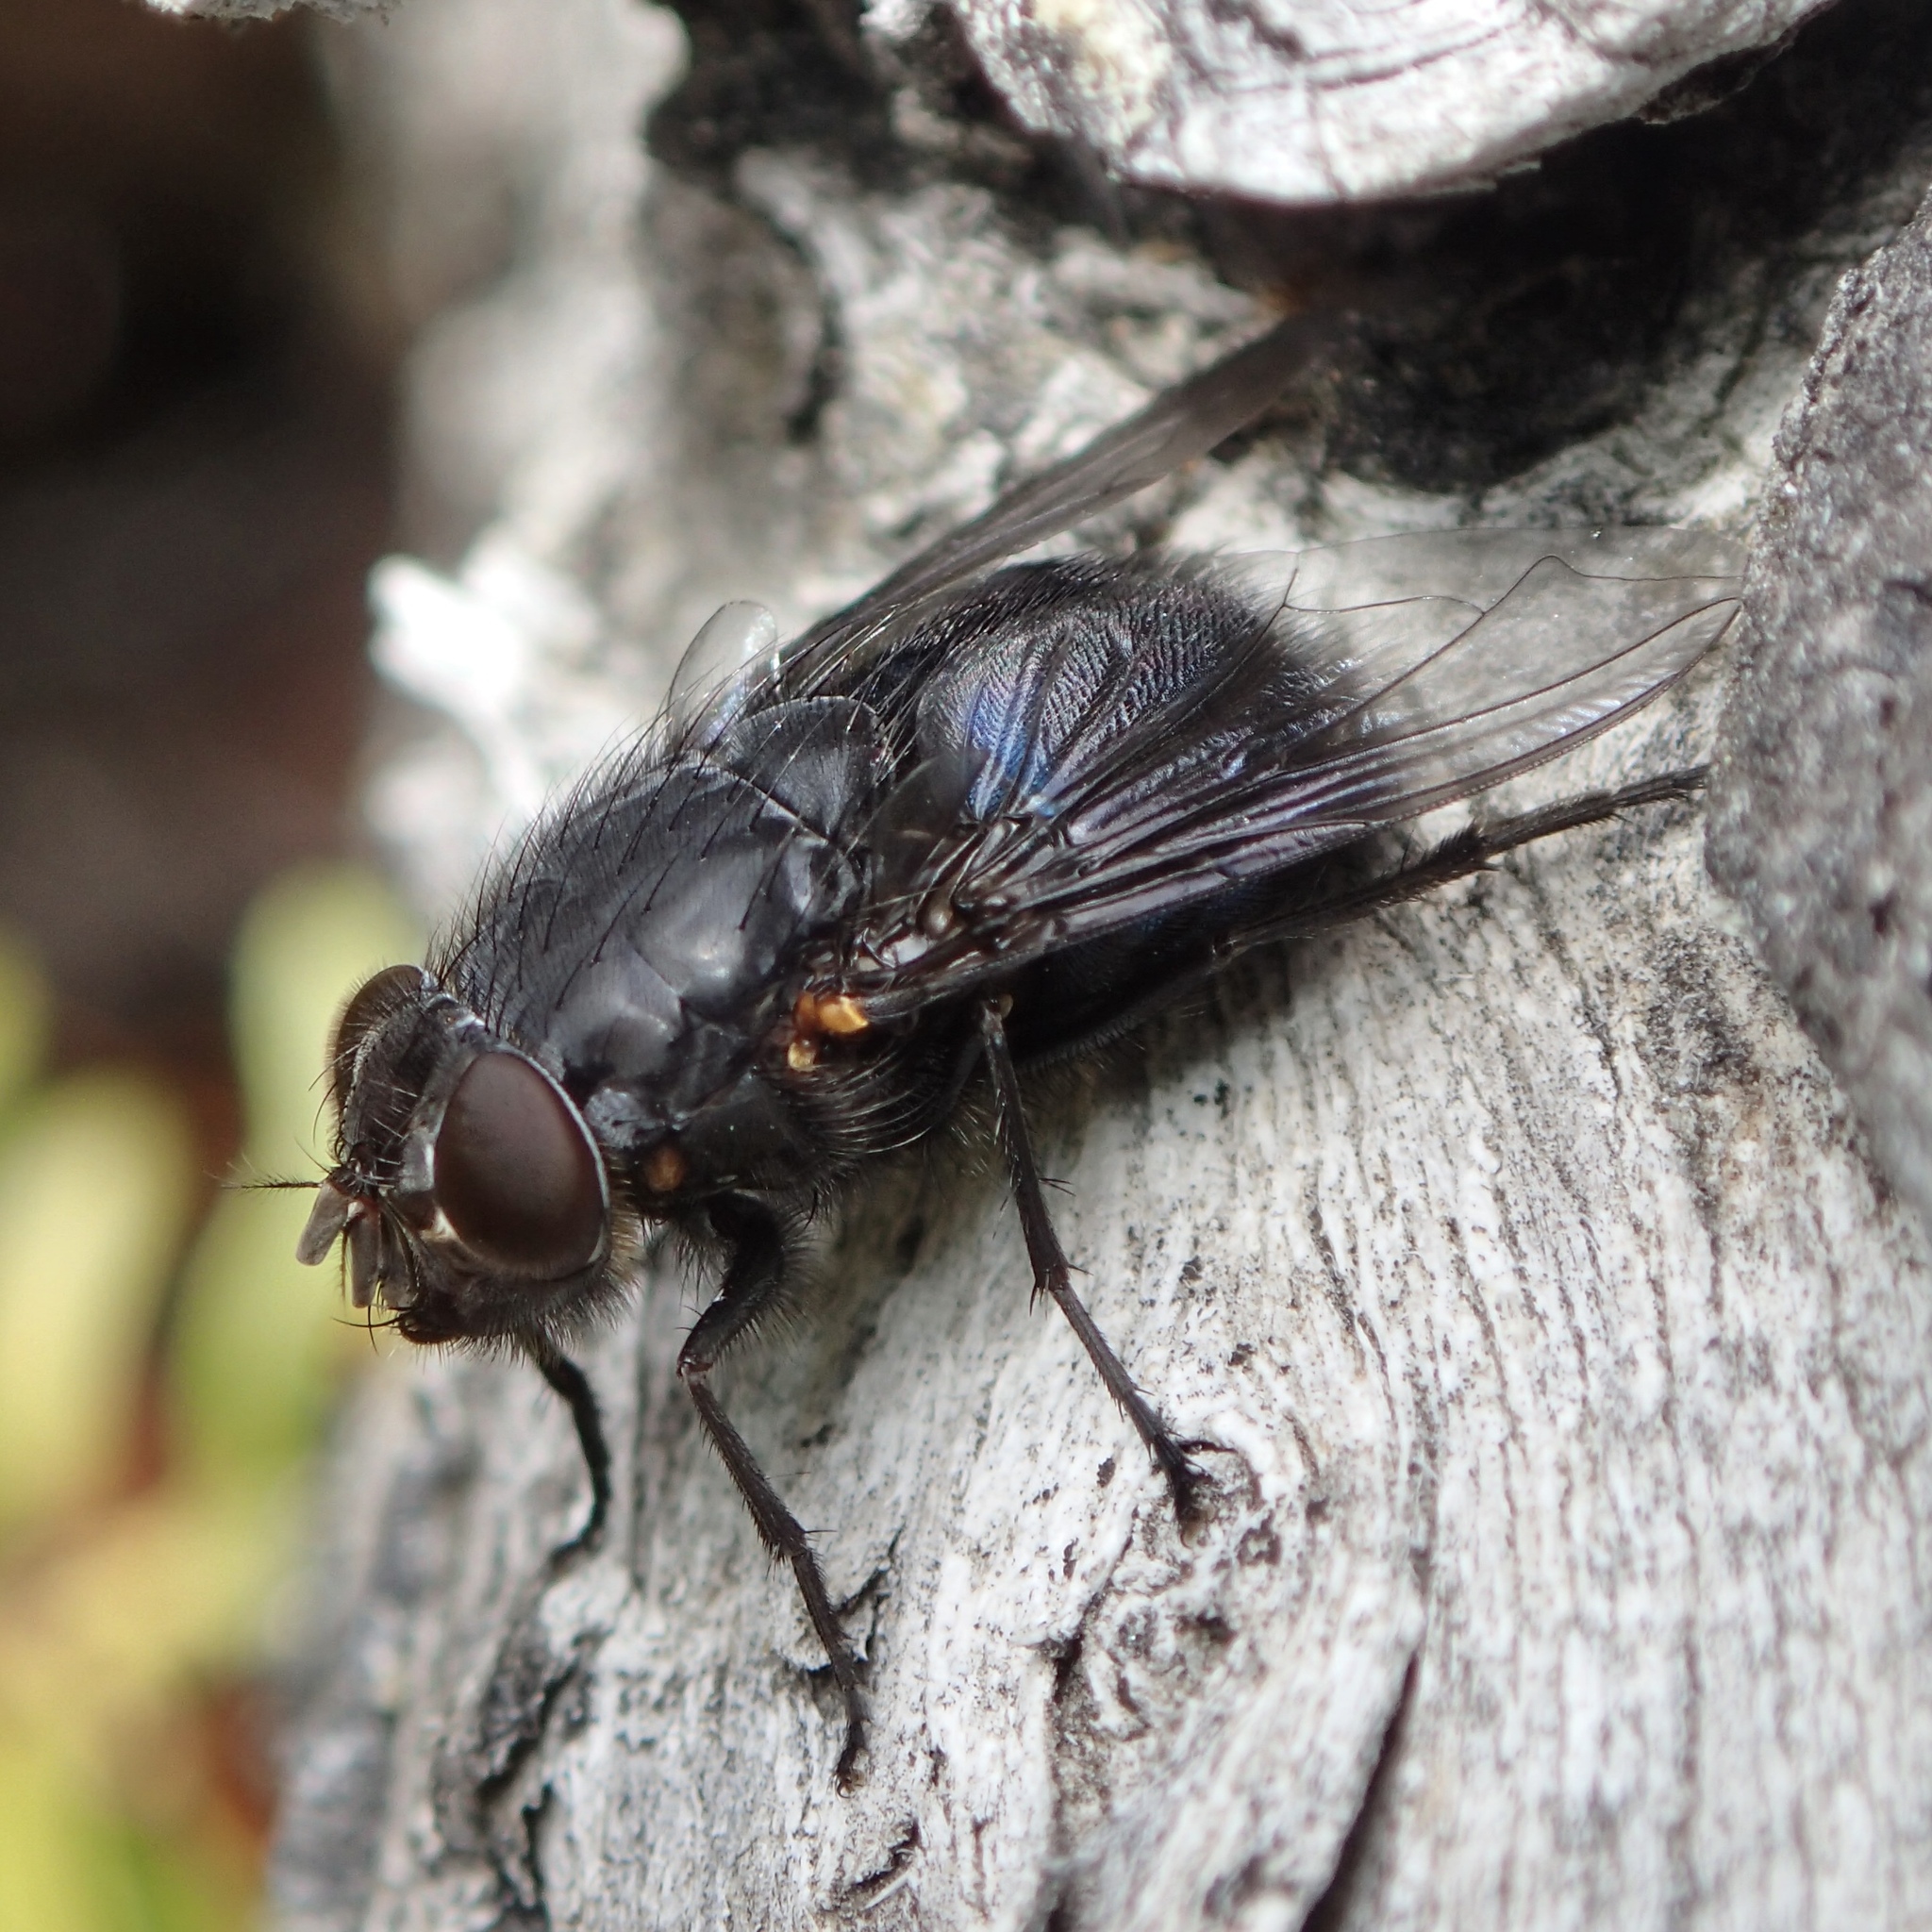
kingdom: Animalia
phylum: Arthropoda
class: Insecta
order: Diptera
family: Calliphoridae
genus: Calliphora
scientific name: Calliphora quadrimaculata
